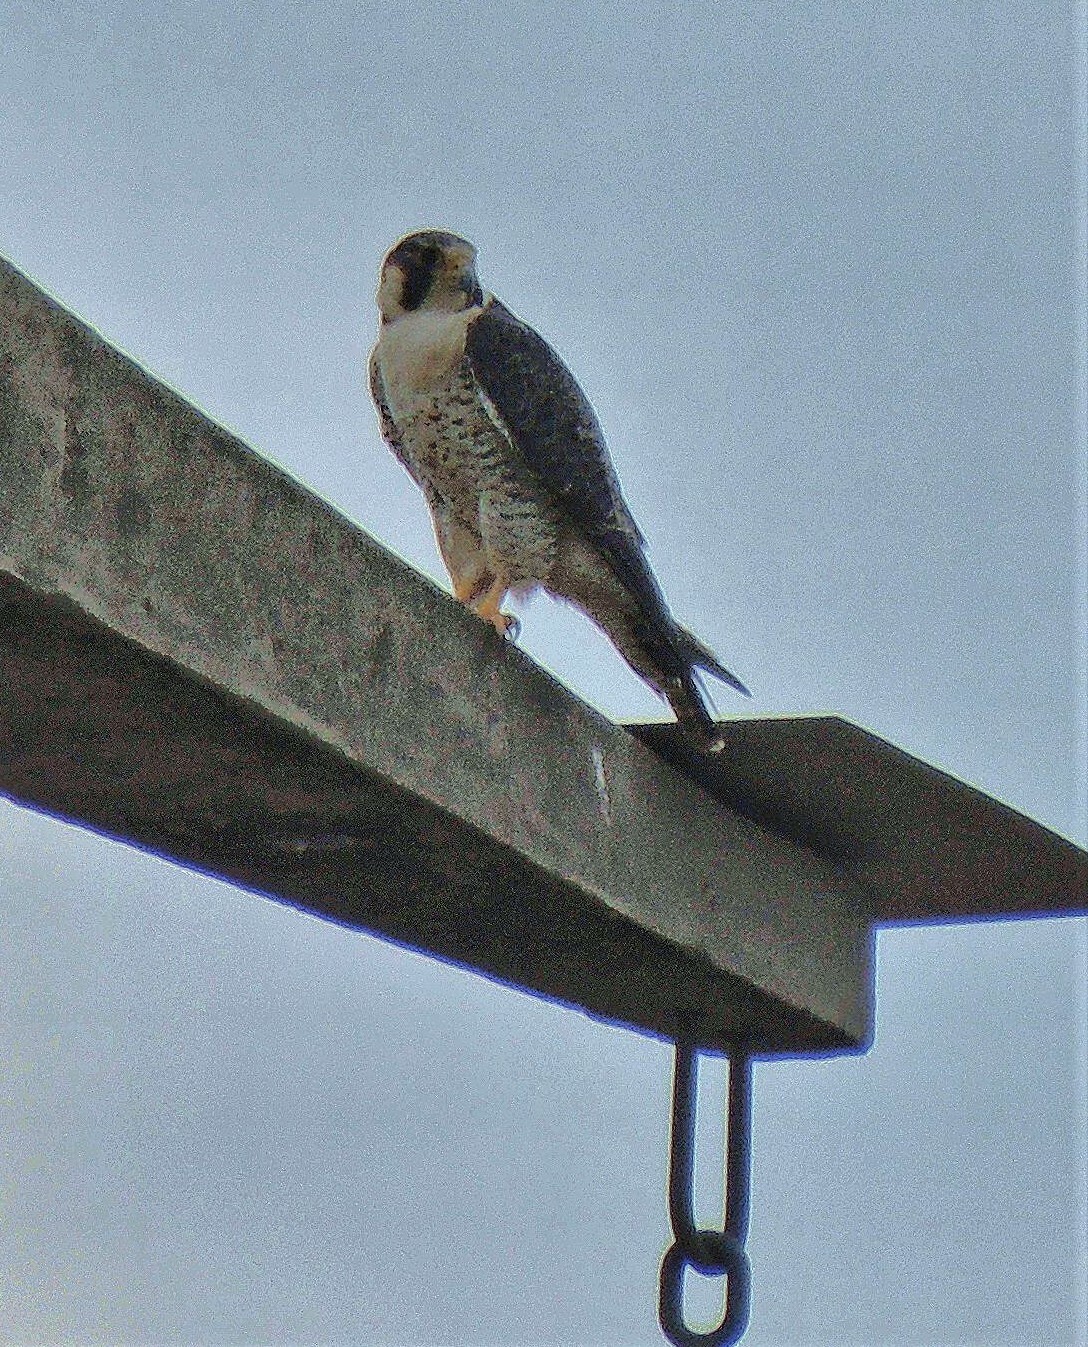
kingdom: Animalia
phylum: Chordata
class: Aves
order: Falconiformes
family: Falconidae
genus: Falco
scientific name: Falco peregrinus
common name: Peregrine falcon
